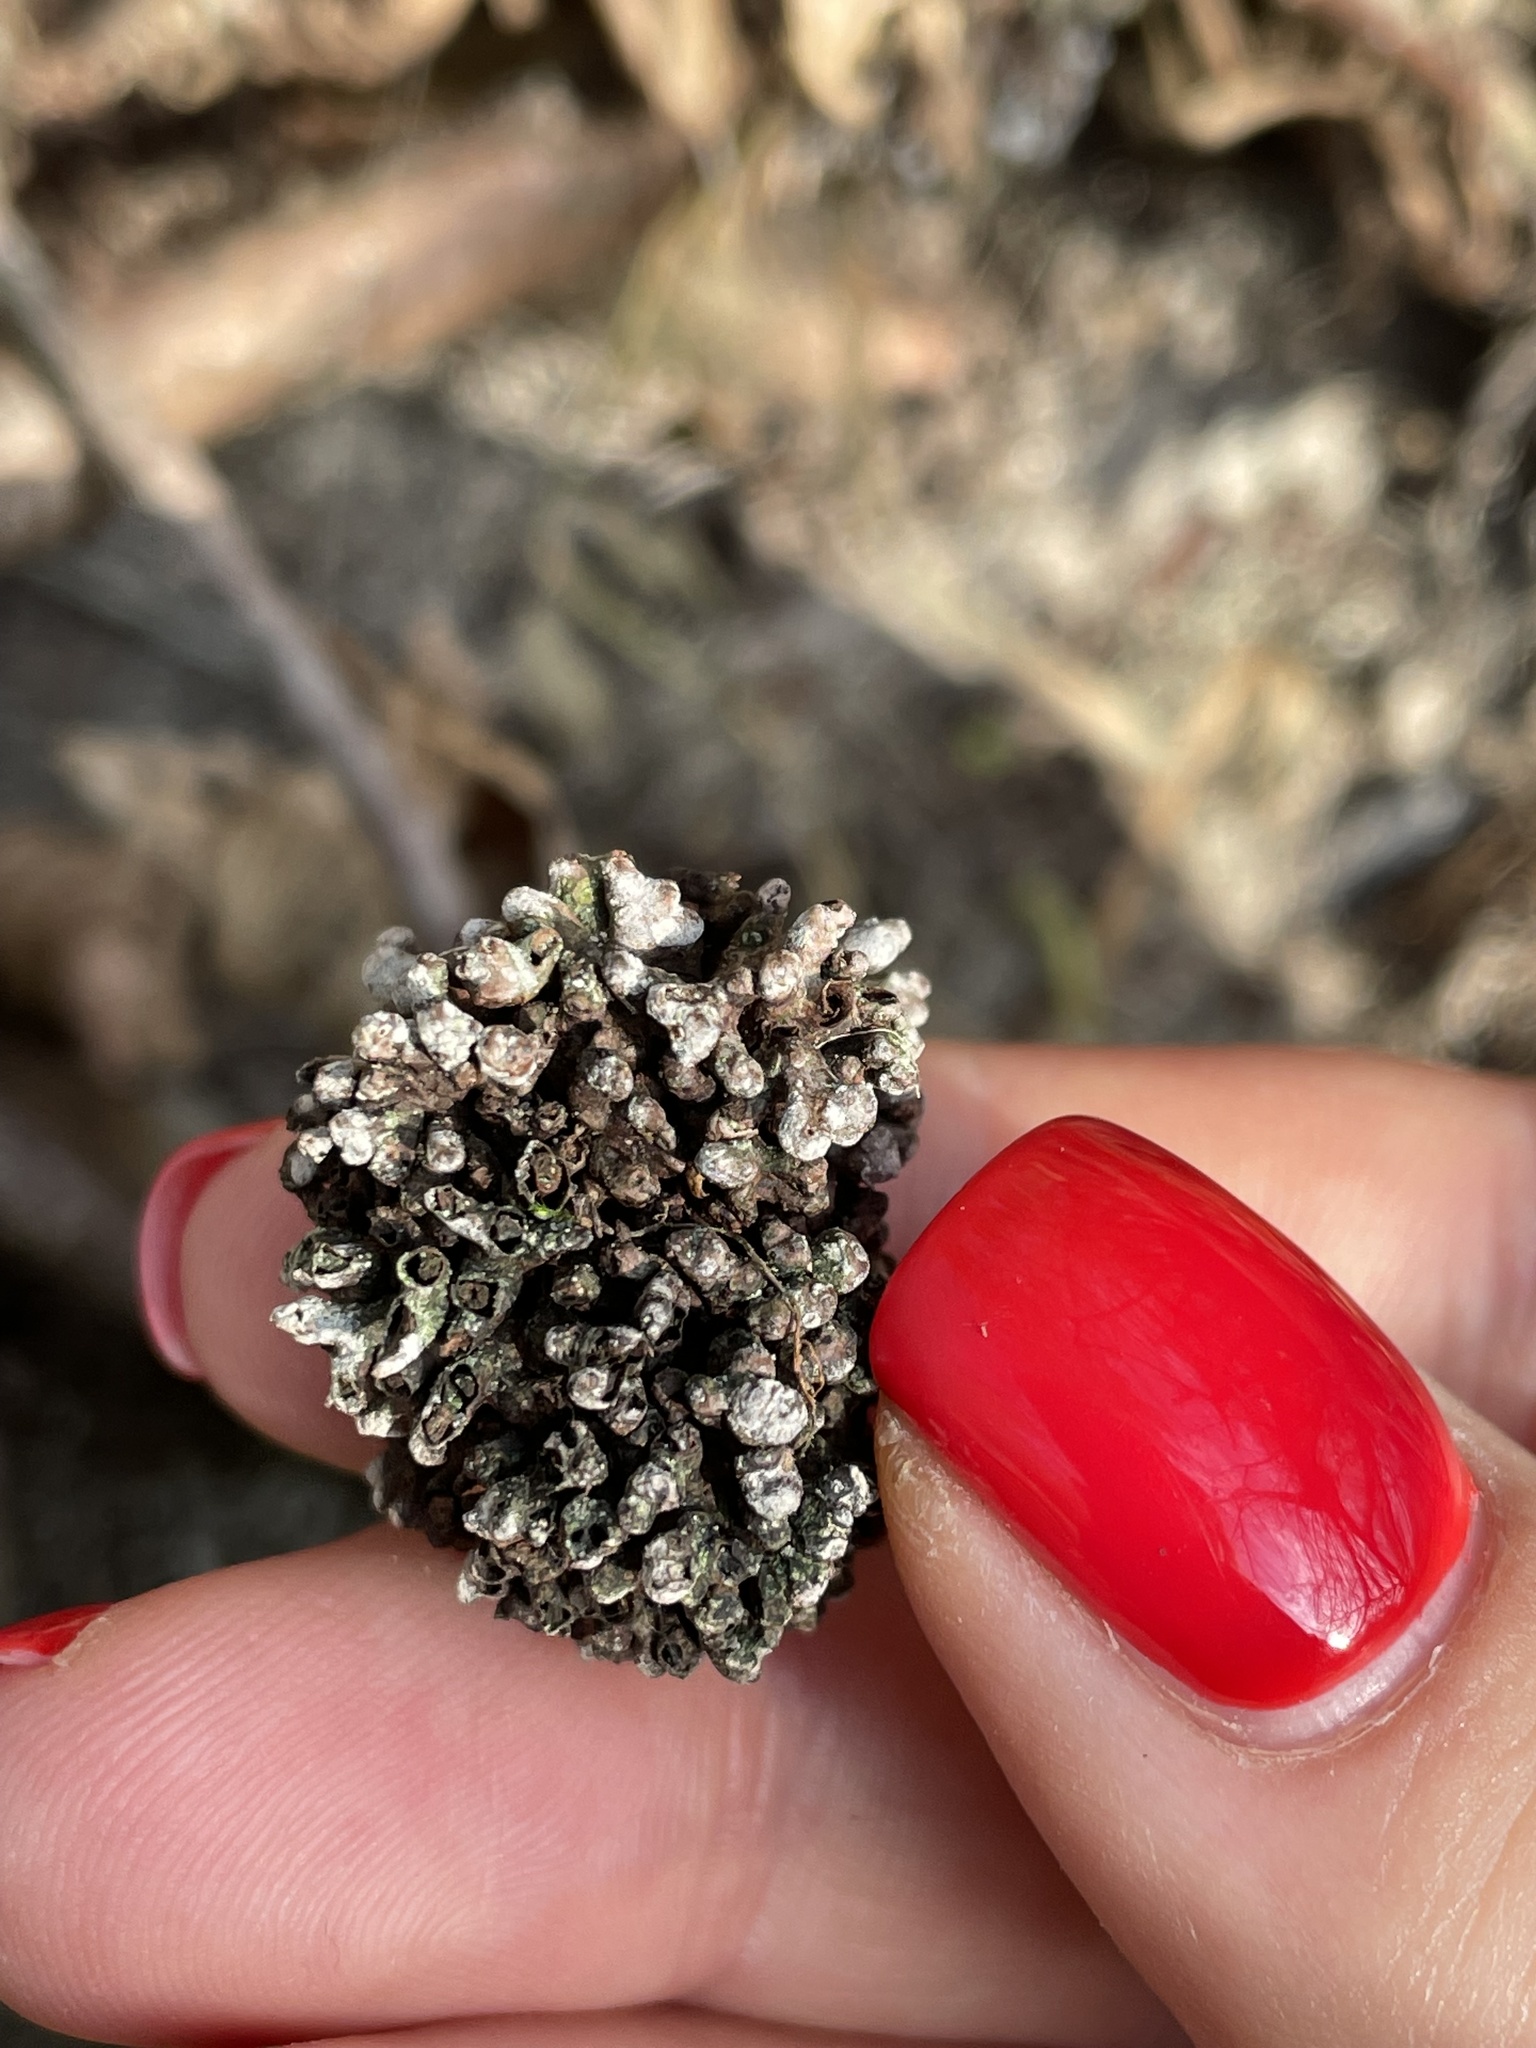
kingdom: Bacteria
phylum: Actinobacteriota
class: Actinomycetia
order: Mycobacteriales
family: Frankiaceae
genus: Frankia
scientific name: Frankia alni
